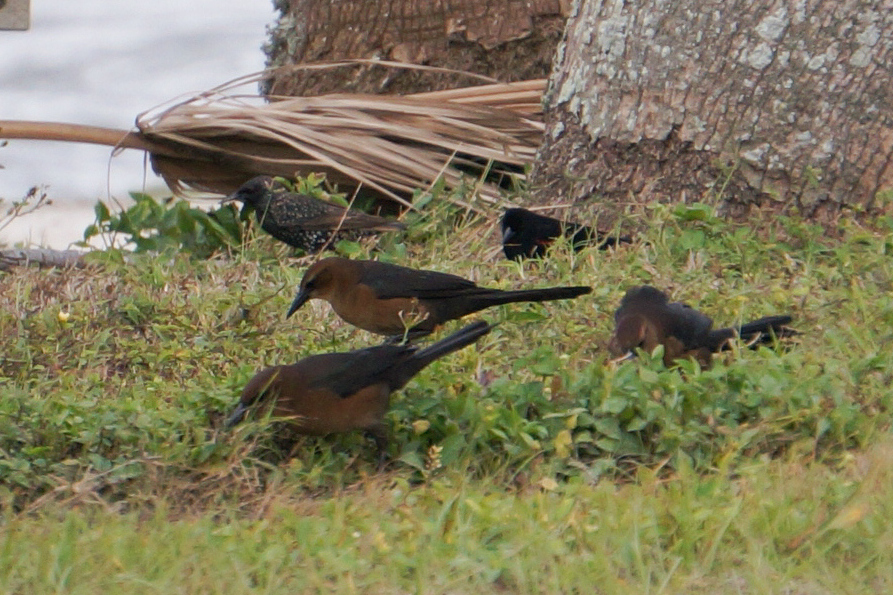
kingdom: Animalia
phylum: Chordata
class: Aves
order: Passeriformes
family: Icteridae
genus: Quiscalus
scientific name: Quiscalus major
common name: Boat-tailed grackle
